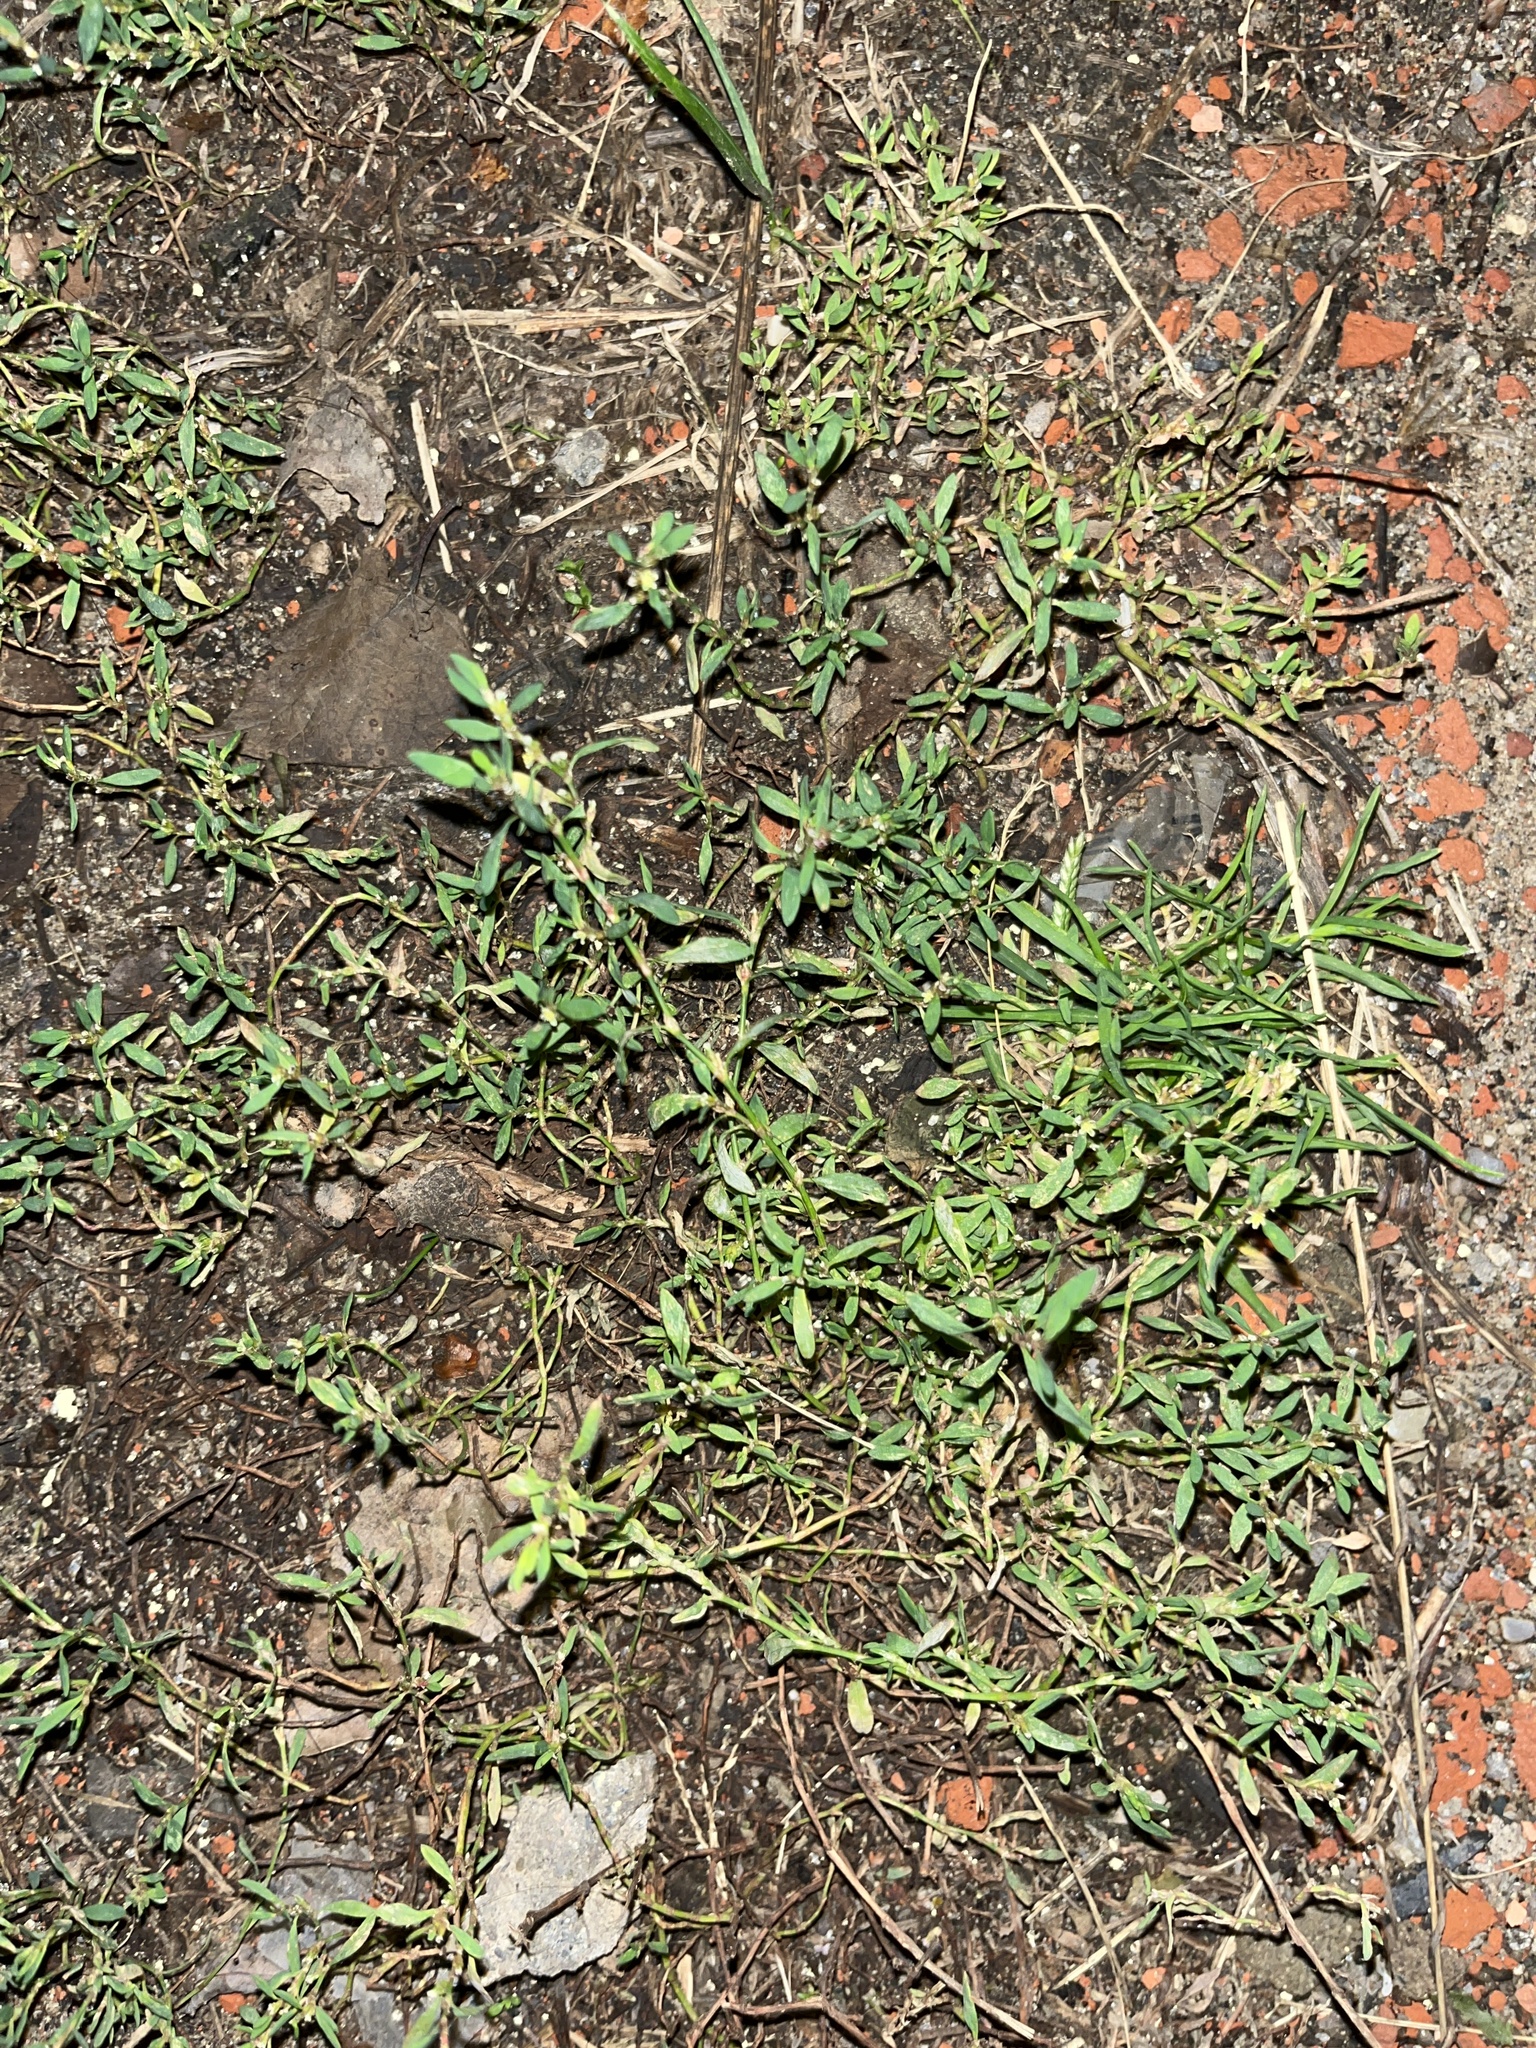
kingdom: Plantae
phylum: Tracheophyta
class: Magnoliopsida
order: Caryophyllales
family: Polygonaceae
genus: Polygonum
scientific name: Polygonum aviculare
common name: Prostrate knotweed
